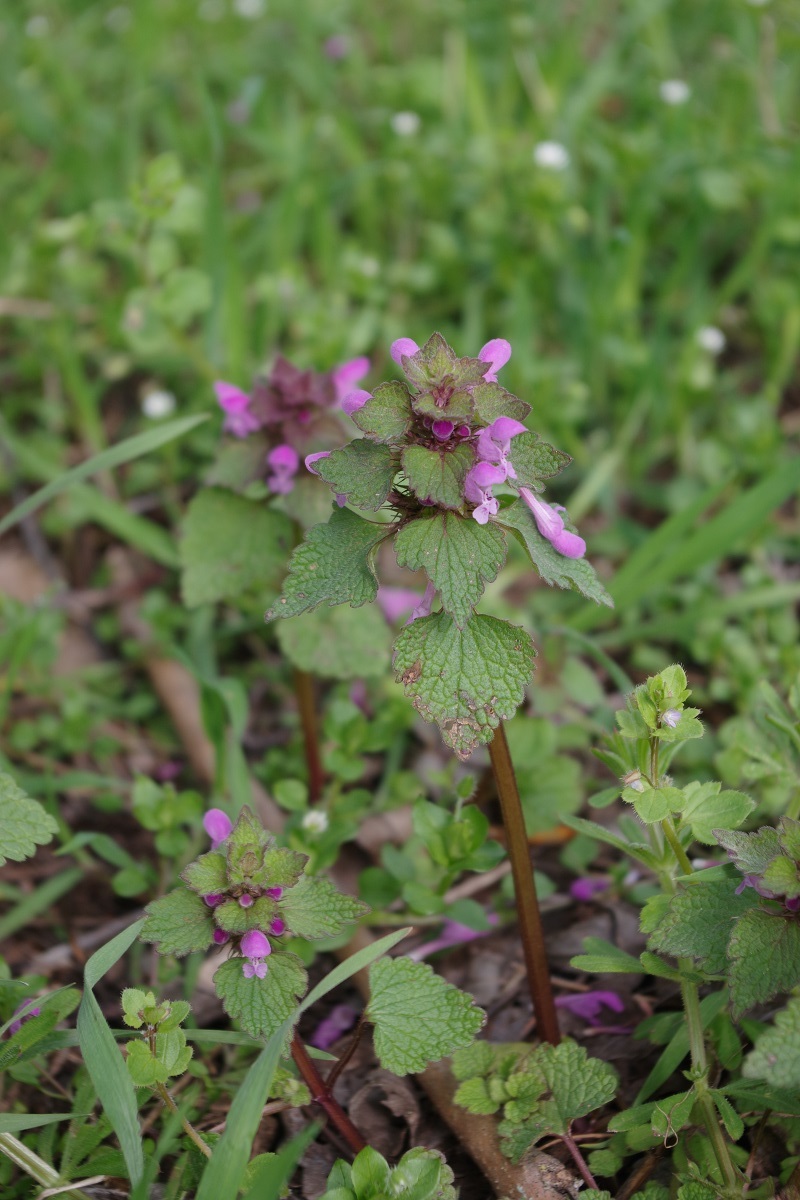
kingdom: Plantae
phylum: Tracheophyta
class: Magnoliopsida
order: Lamiales
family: Lamiaceae
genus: Lamium
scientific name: Lamium purpureum
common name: Red dead-nettle
